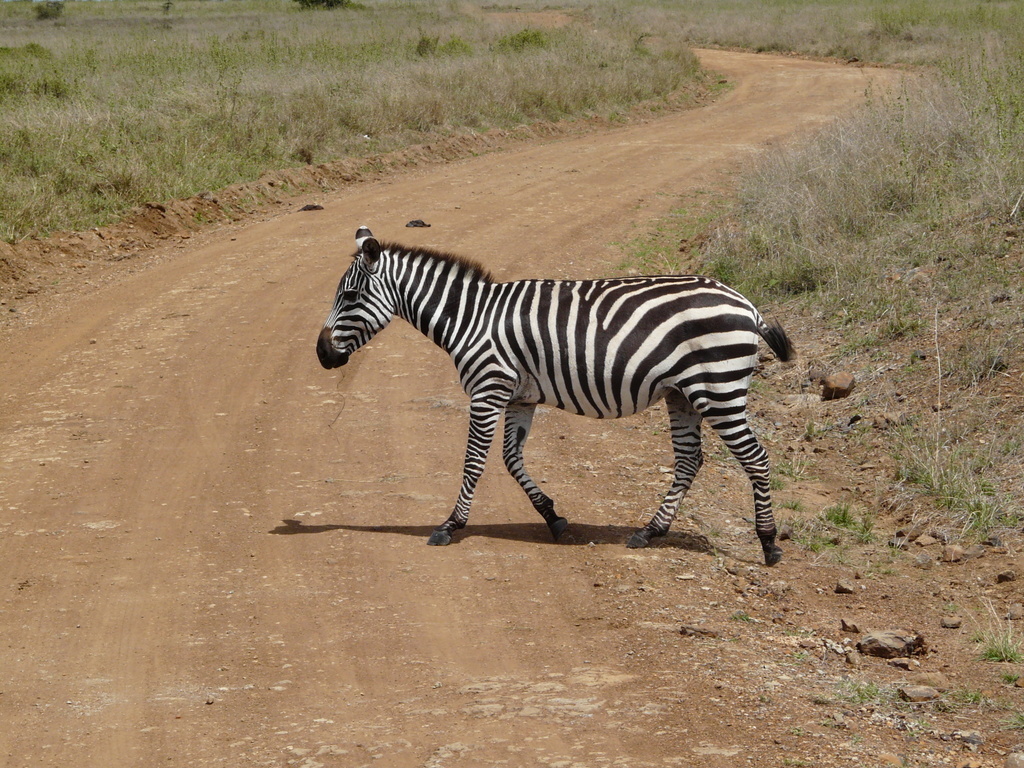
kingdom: Animalia
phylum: Chordata
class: Mammalia
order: Perissodactyla
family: Equidae
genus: Equus
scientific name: Equus quagga
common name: Plains zebra
